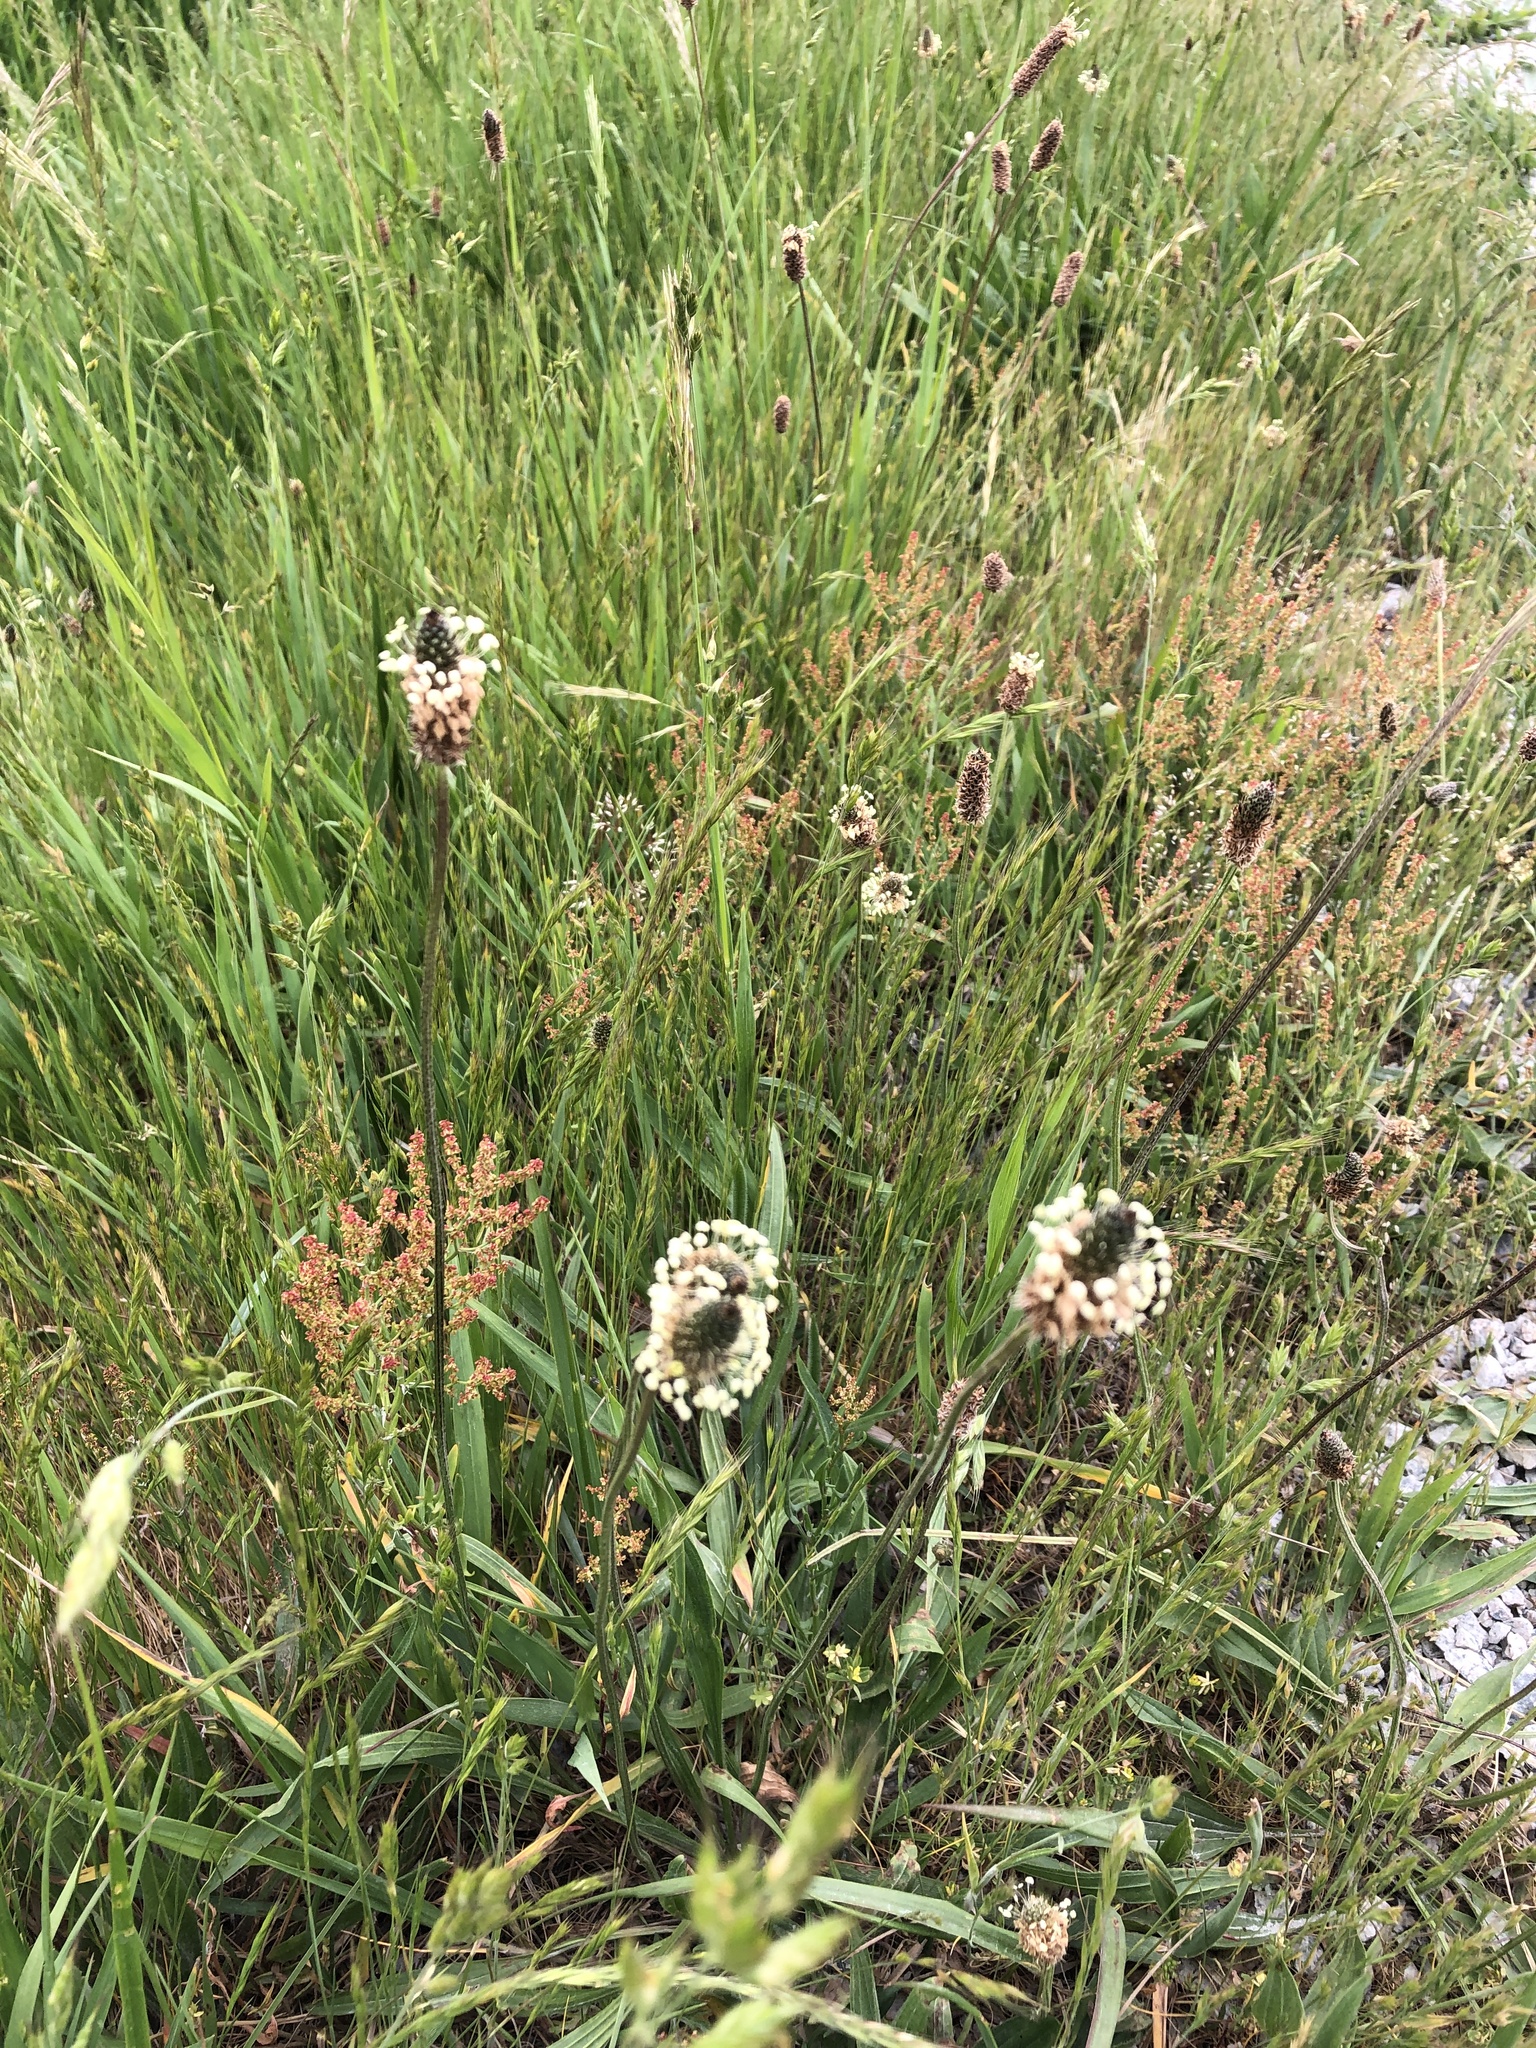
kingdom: Plantae
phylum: Tracheophyta
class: Magnoliopsida
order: Lamiales
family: Plantaginaceae
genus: Plantago
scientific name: Plantago lanceolata
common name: Ribwort plantain
